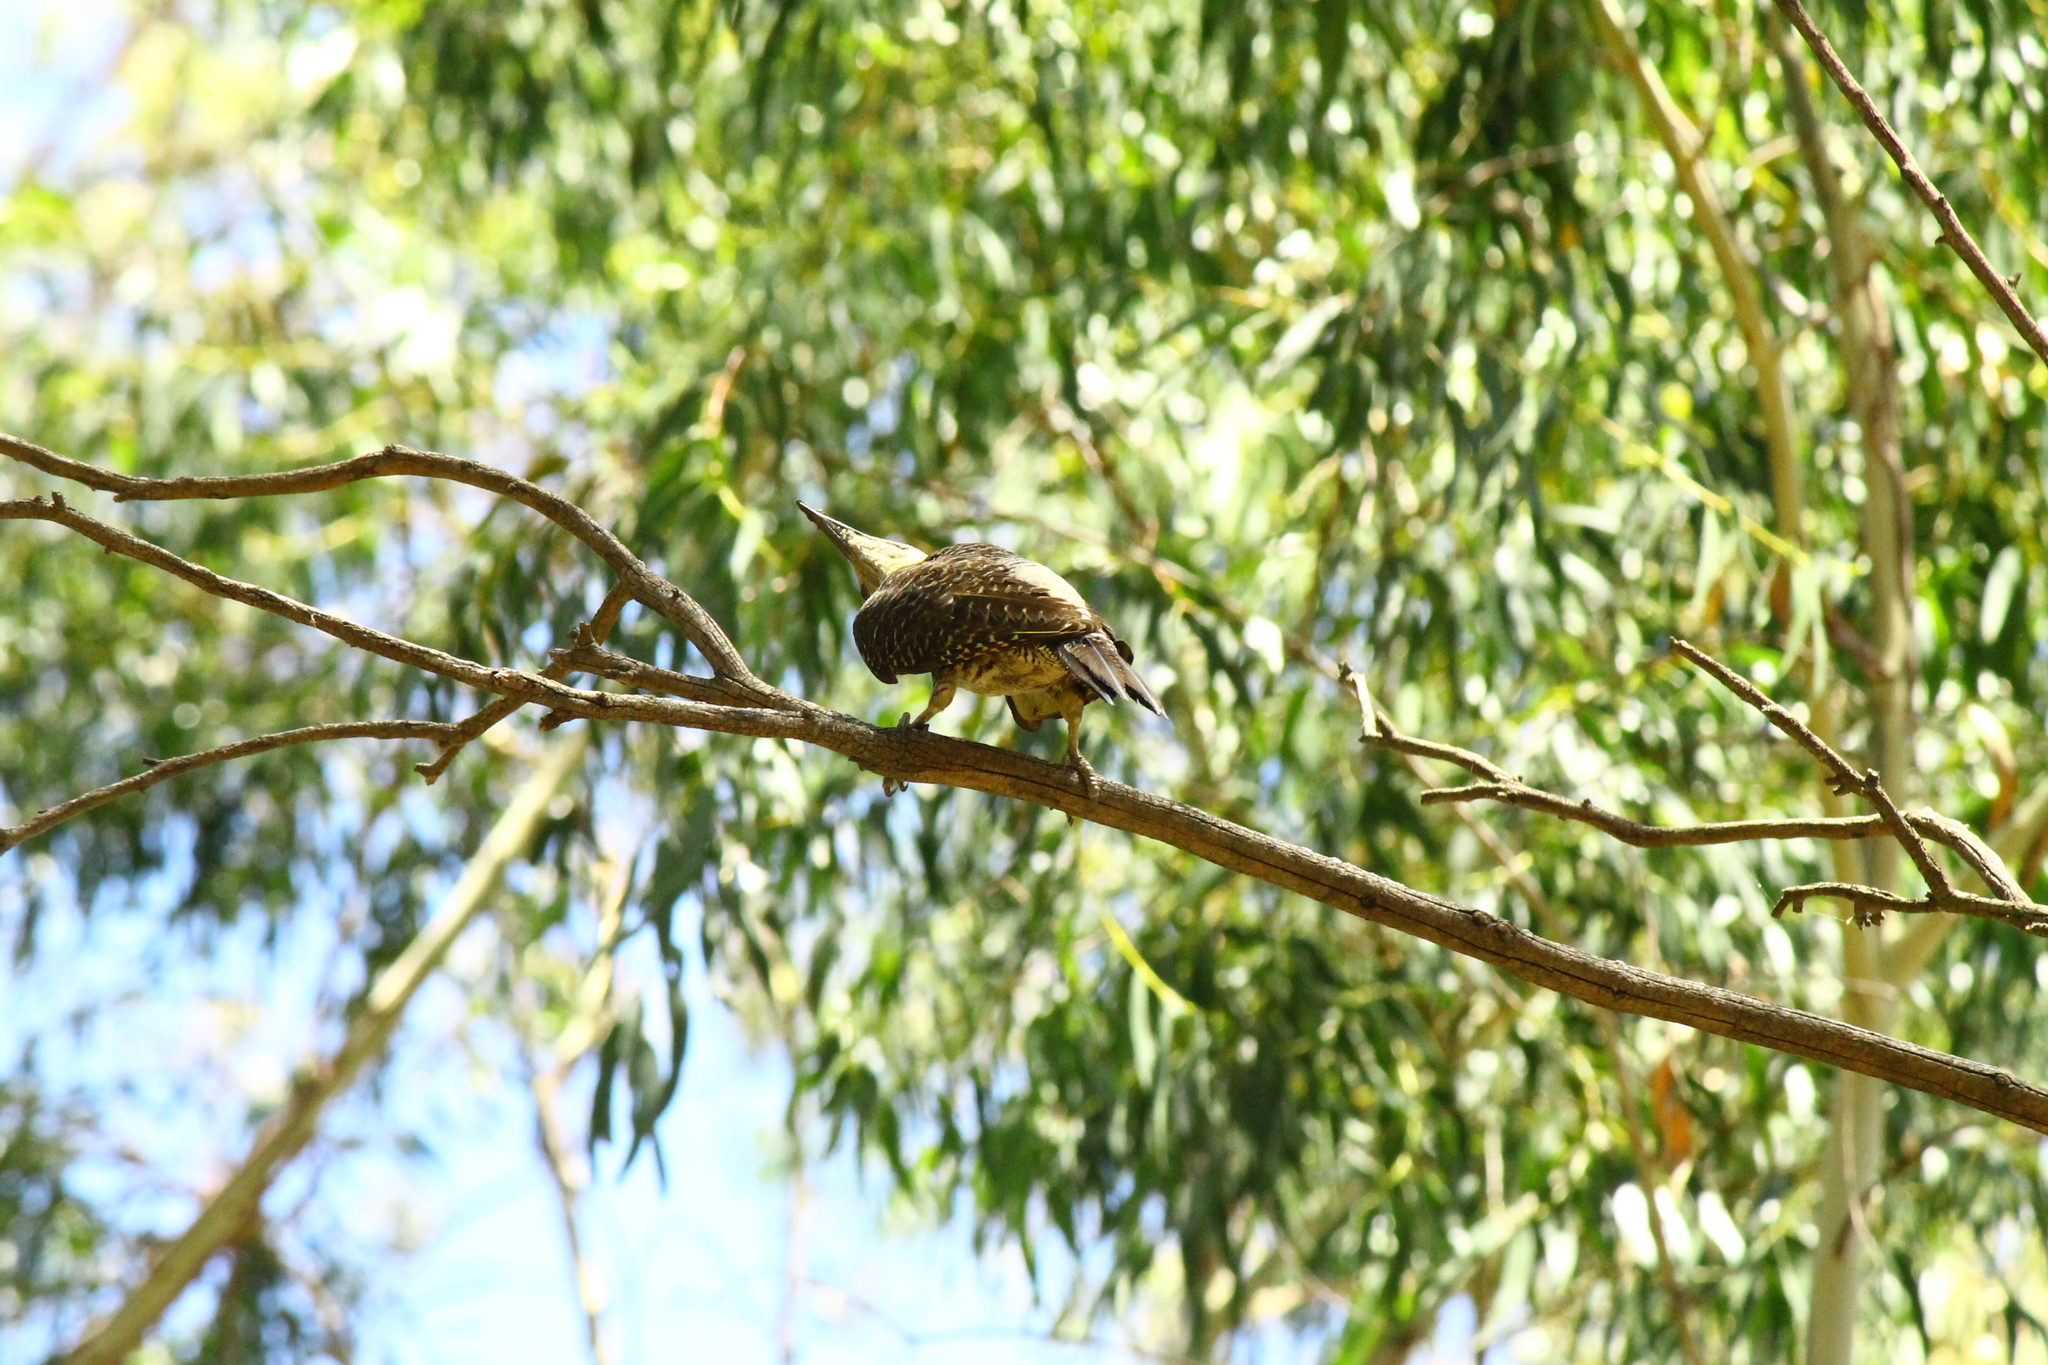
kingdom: Animalia
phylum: Chordata
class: Aves
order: Piciformes
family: Picidae
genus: Colaptes
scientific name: Colaptes campestris
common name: Campo flicker
